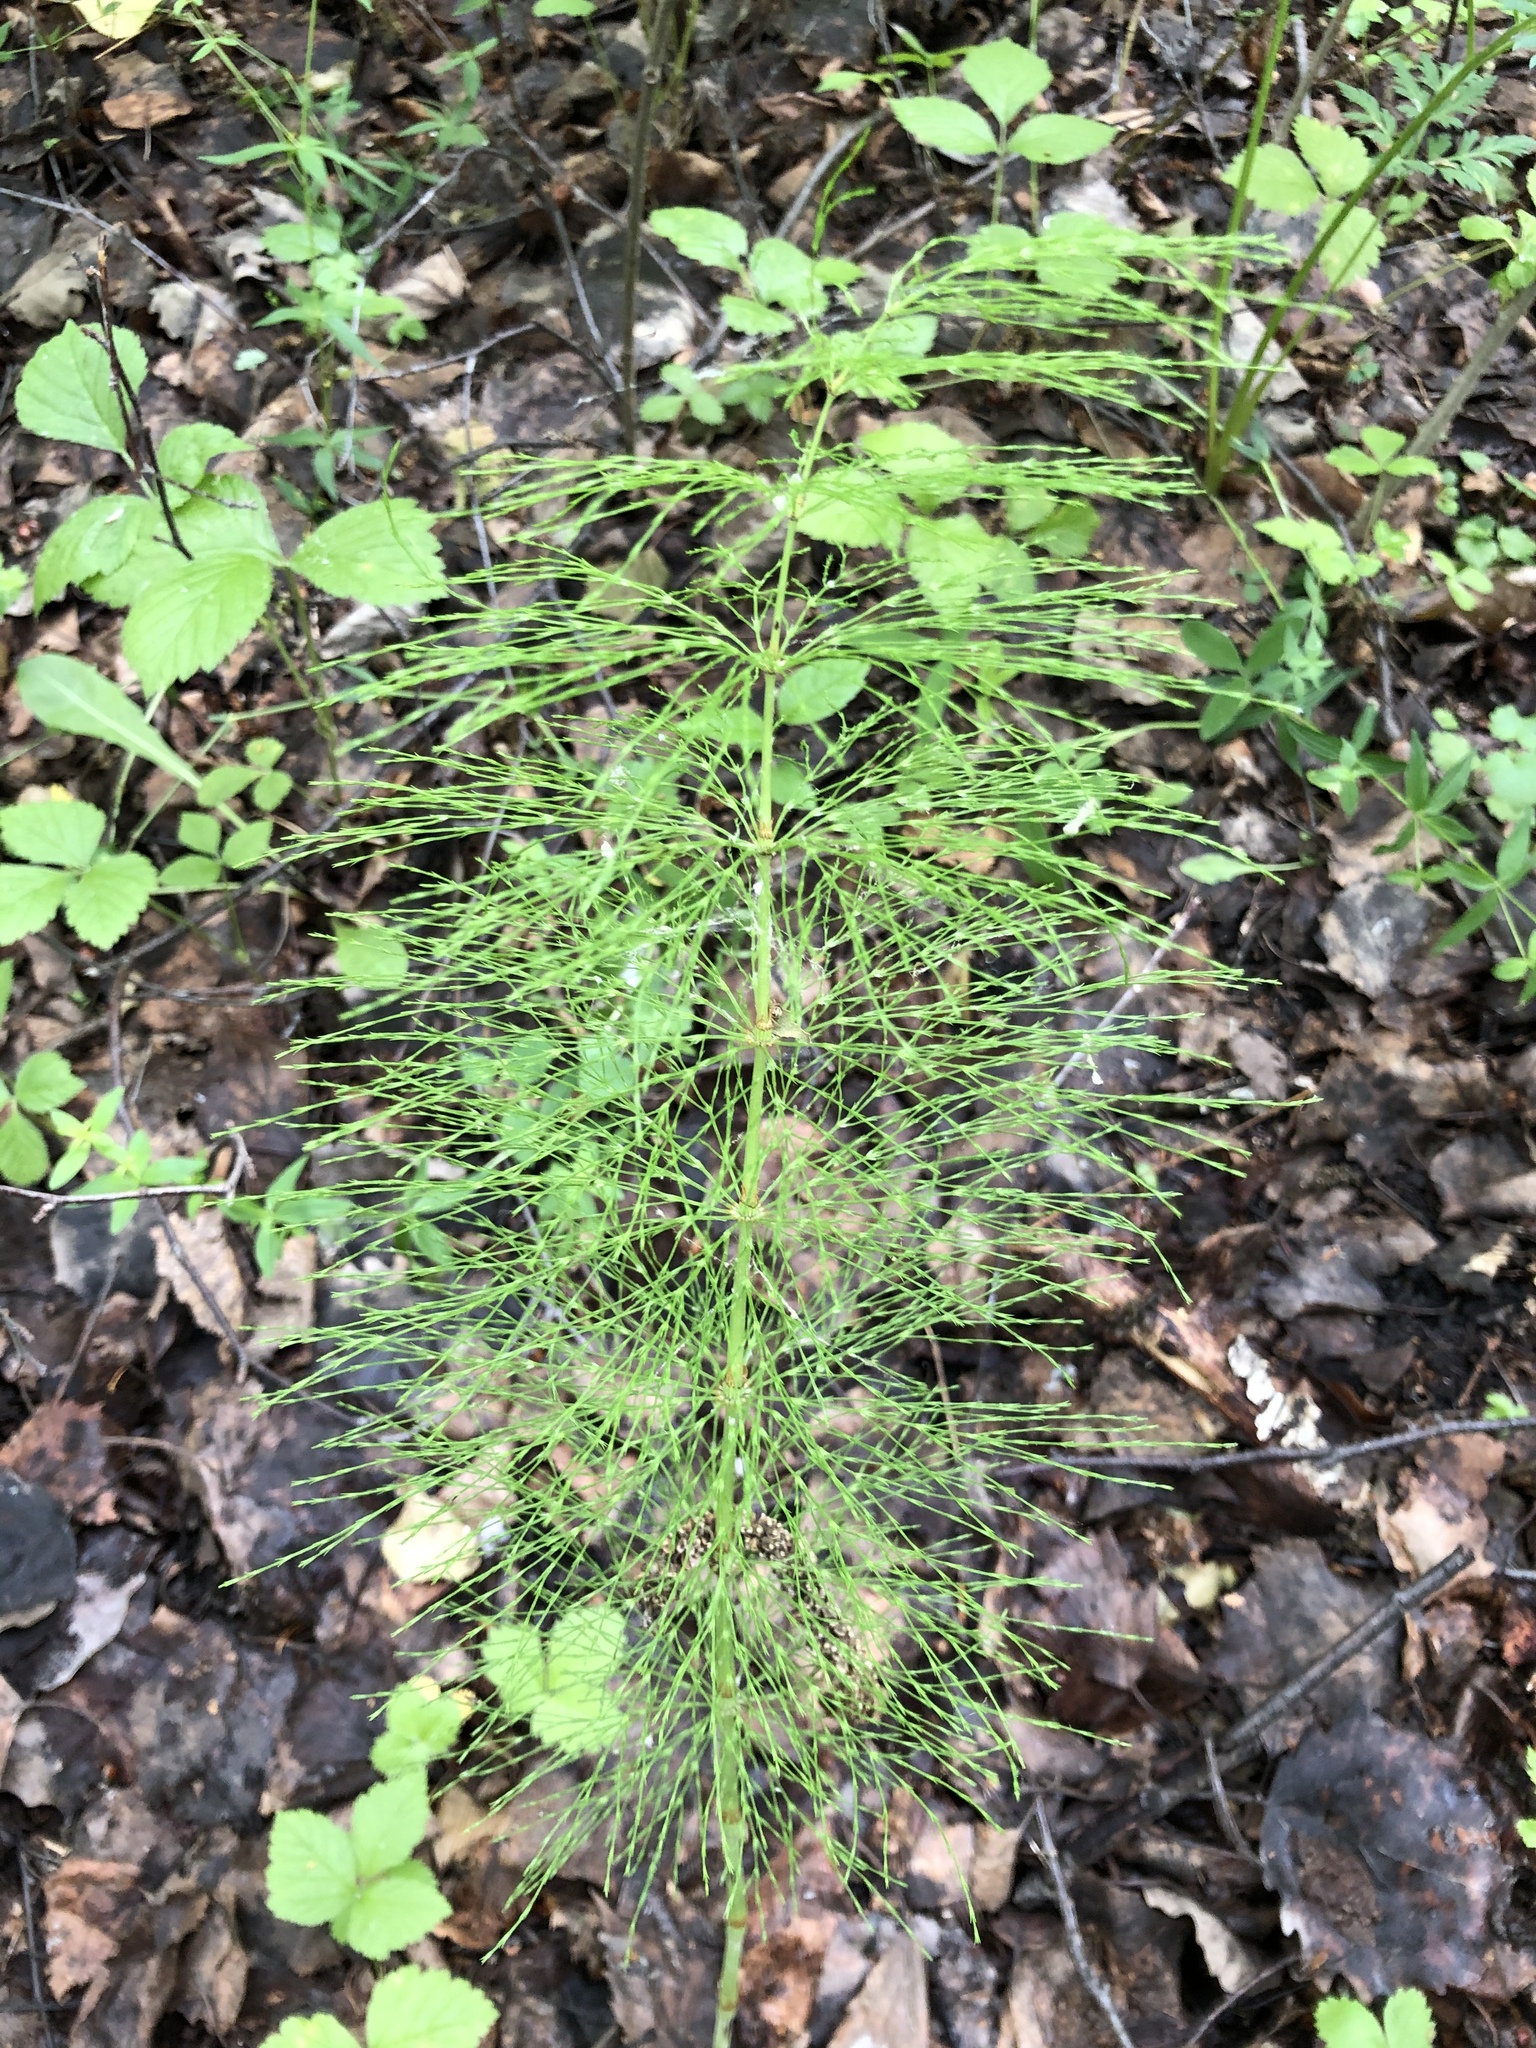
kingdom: Plantae
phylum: Tracheophyta
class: Polypodiopsida
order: Equisetales
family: Equisetaceae
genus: Equisetum
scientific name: Equisetum sylvaticum
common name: Wood horsetail
